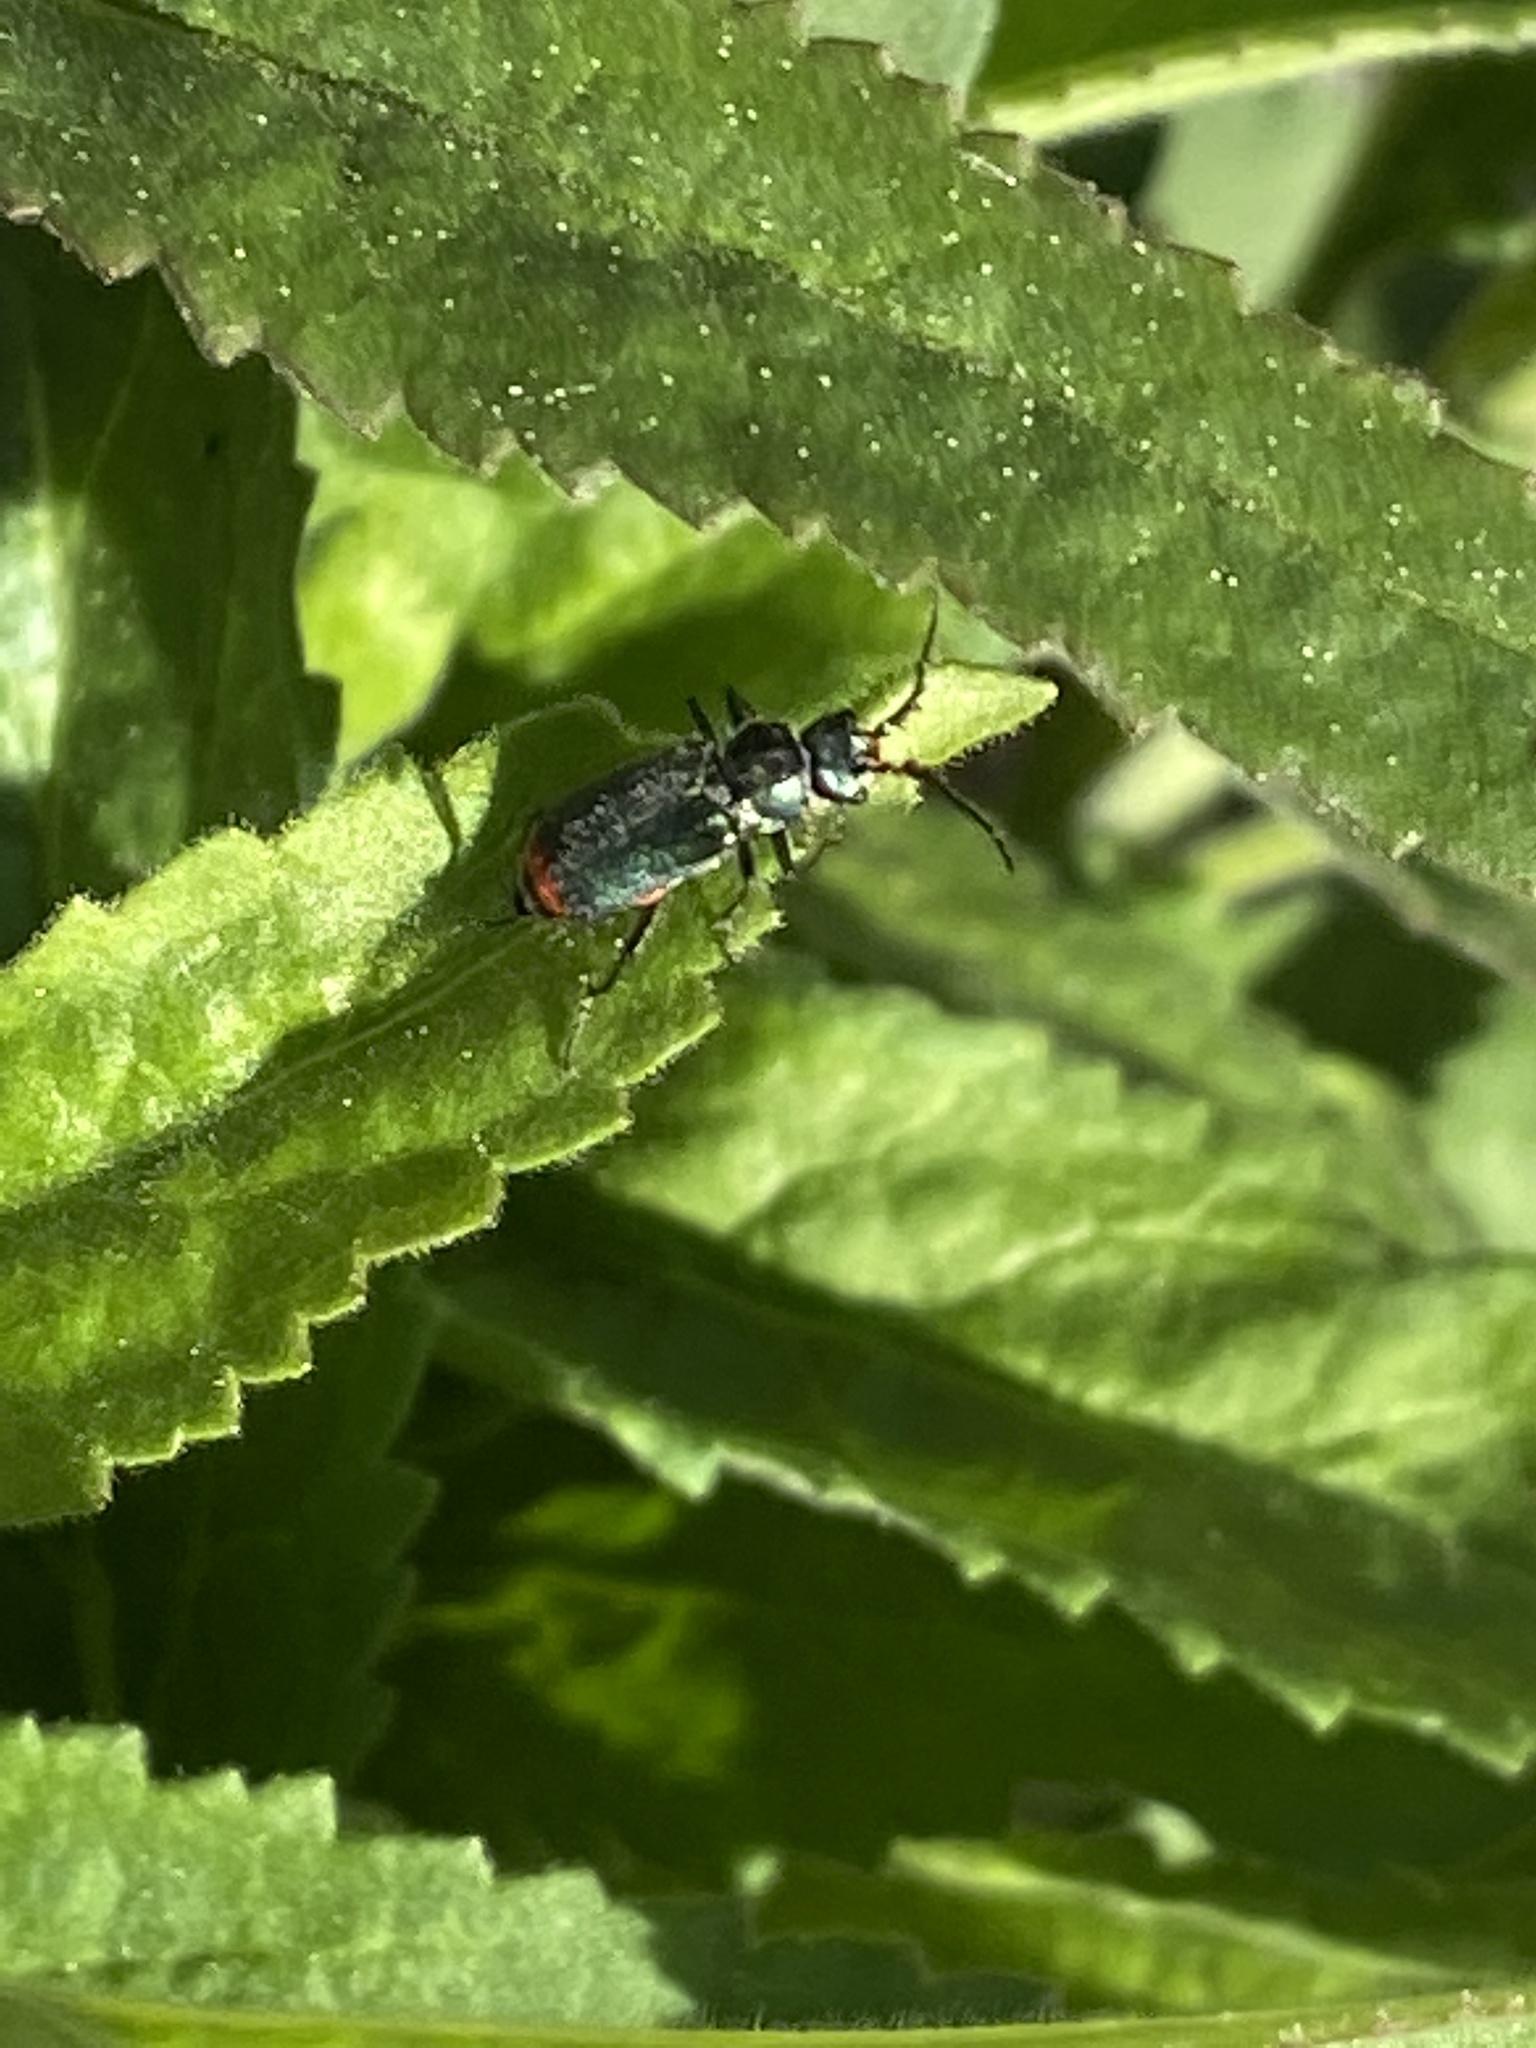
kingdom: Animalia
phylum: Arthropoda
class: Insecta
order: Coleoptera
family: Melyridae
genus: Malachius
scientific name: Malachius bipustulatus
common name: Malachite beetle
